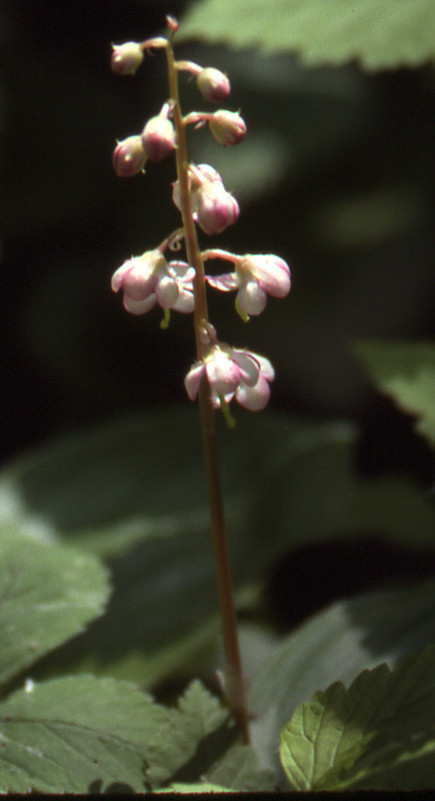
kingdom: Plantae
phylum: Tracheophyta
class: Magnoliopsida
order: Ericales
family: Ericaceae
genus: Pyrola
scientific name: Pyrola asarifolia
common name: Bog wintergreen
